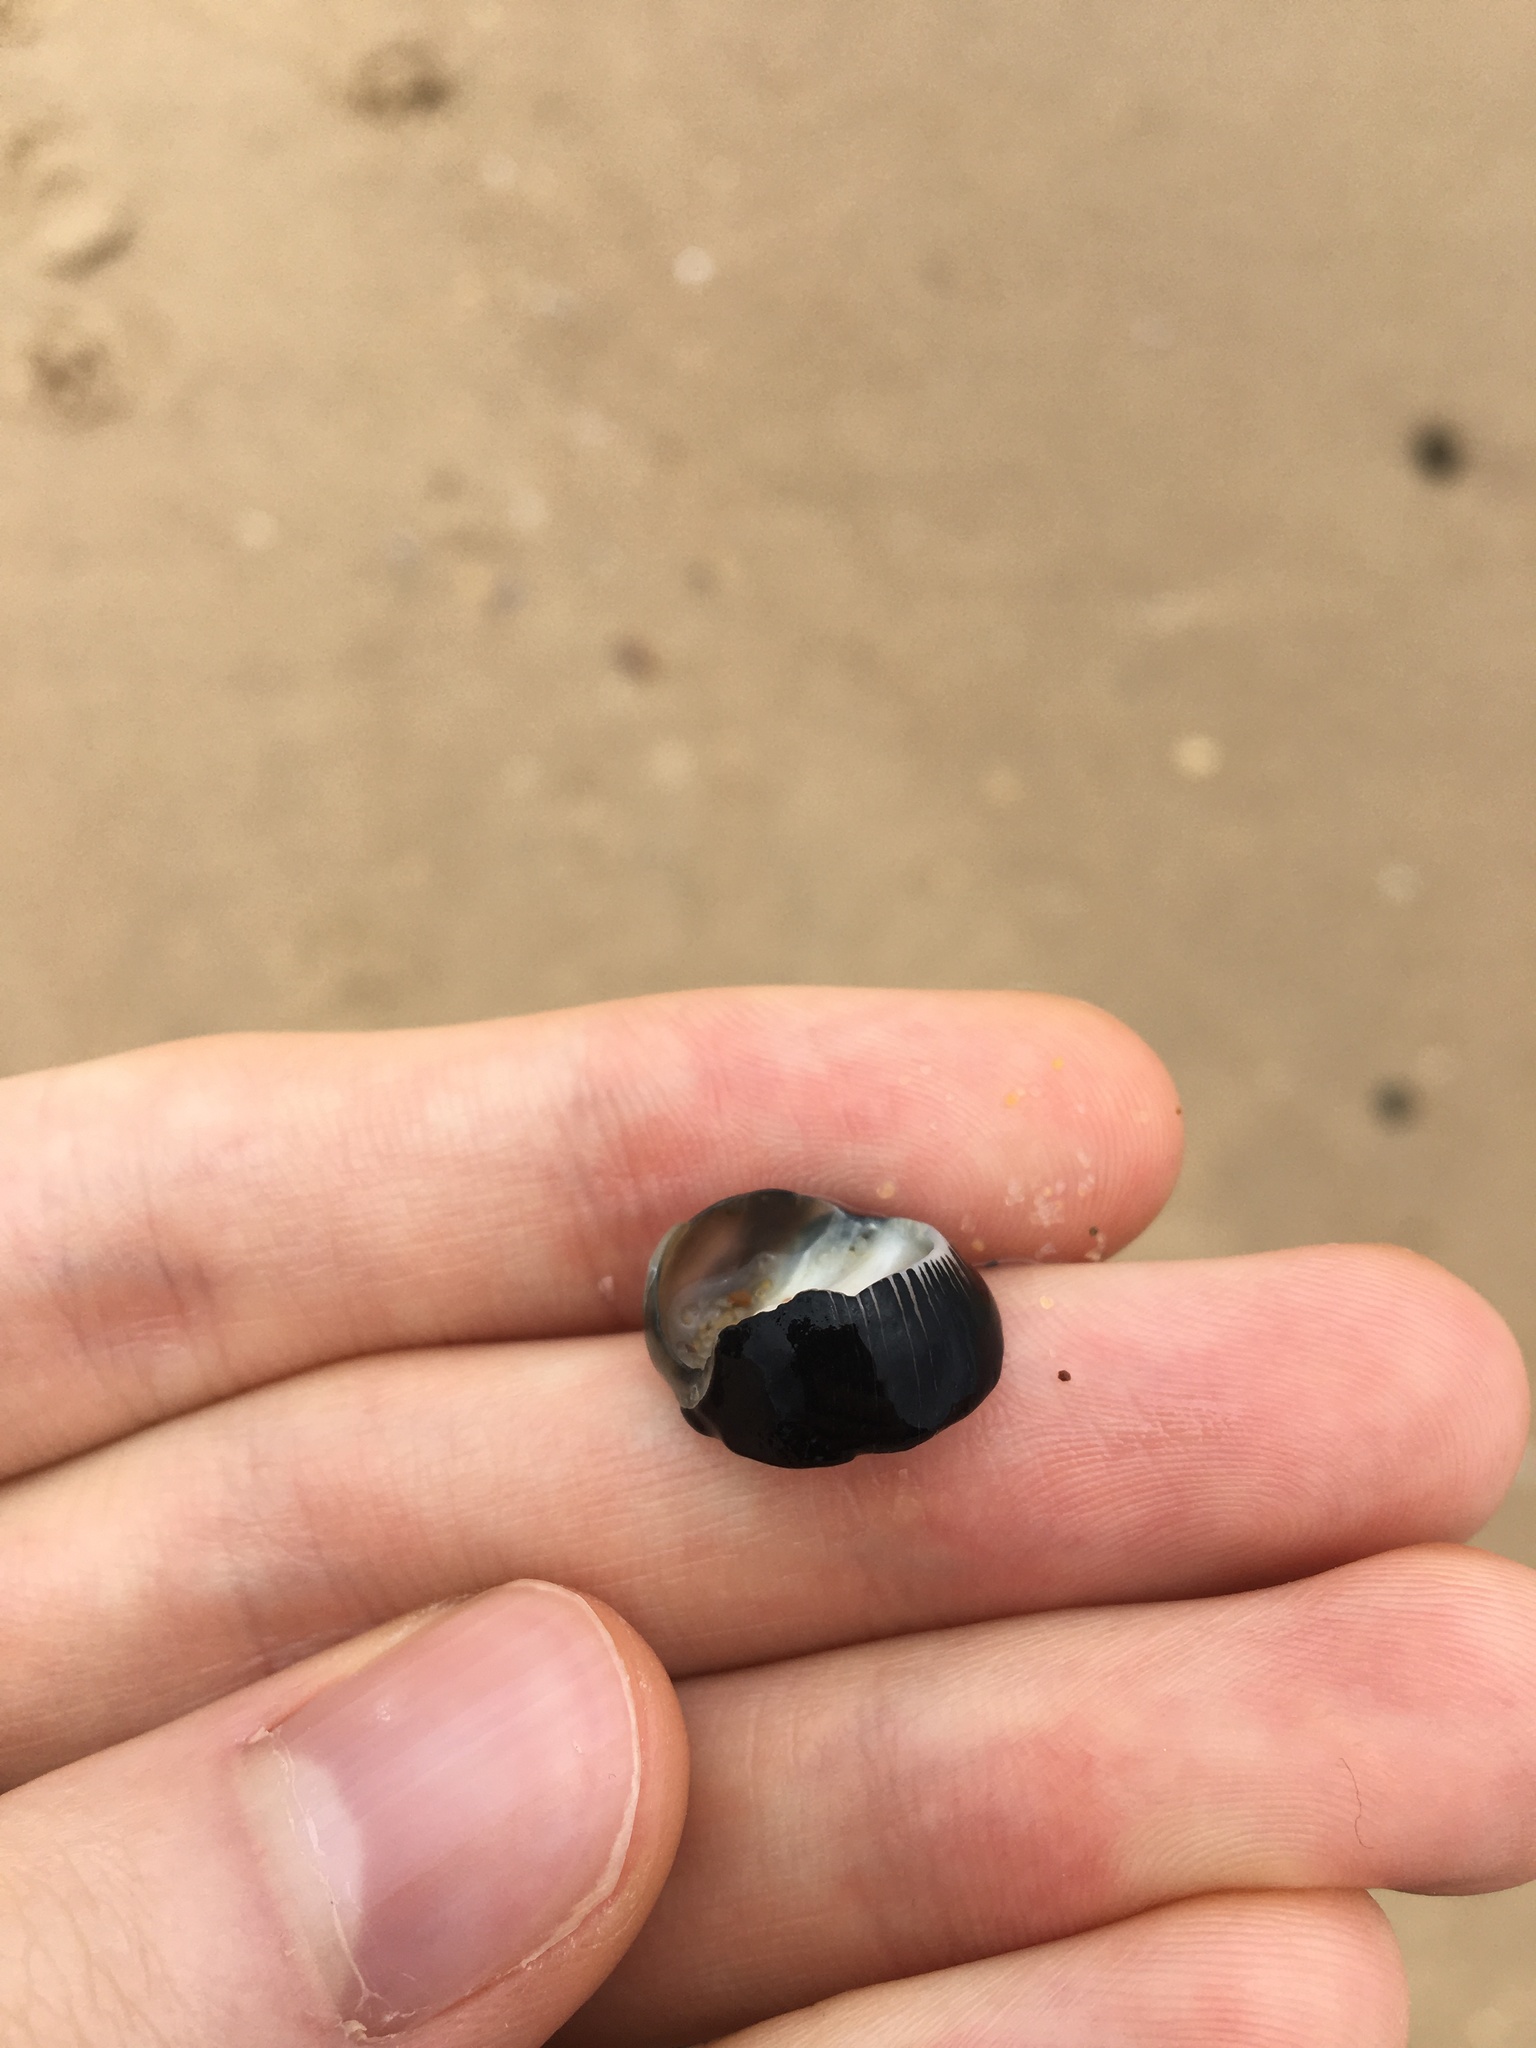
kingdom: Animalia
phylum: Mollusca
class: Gastropoda
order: Cycloneritida
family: Neritidae
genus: Nerita
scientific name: Nerita melanotragus
